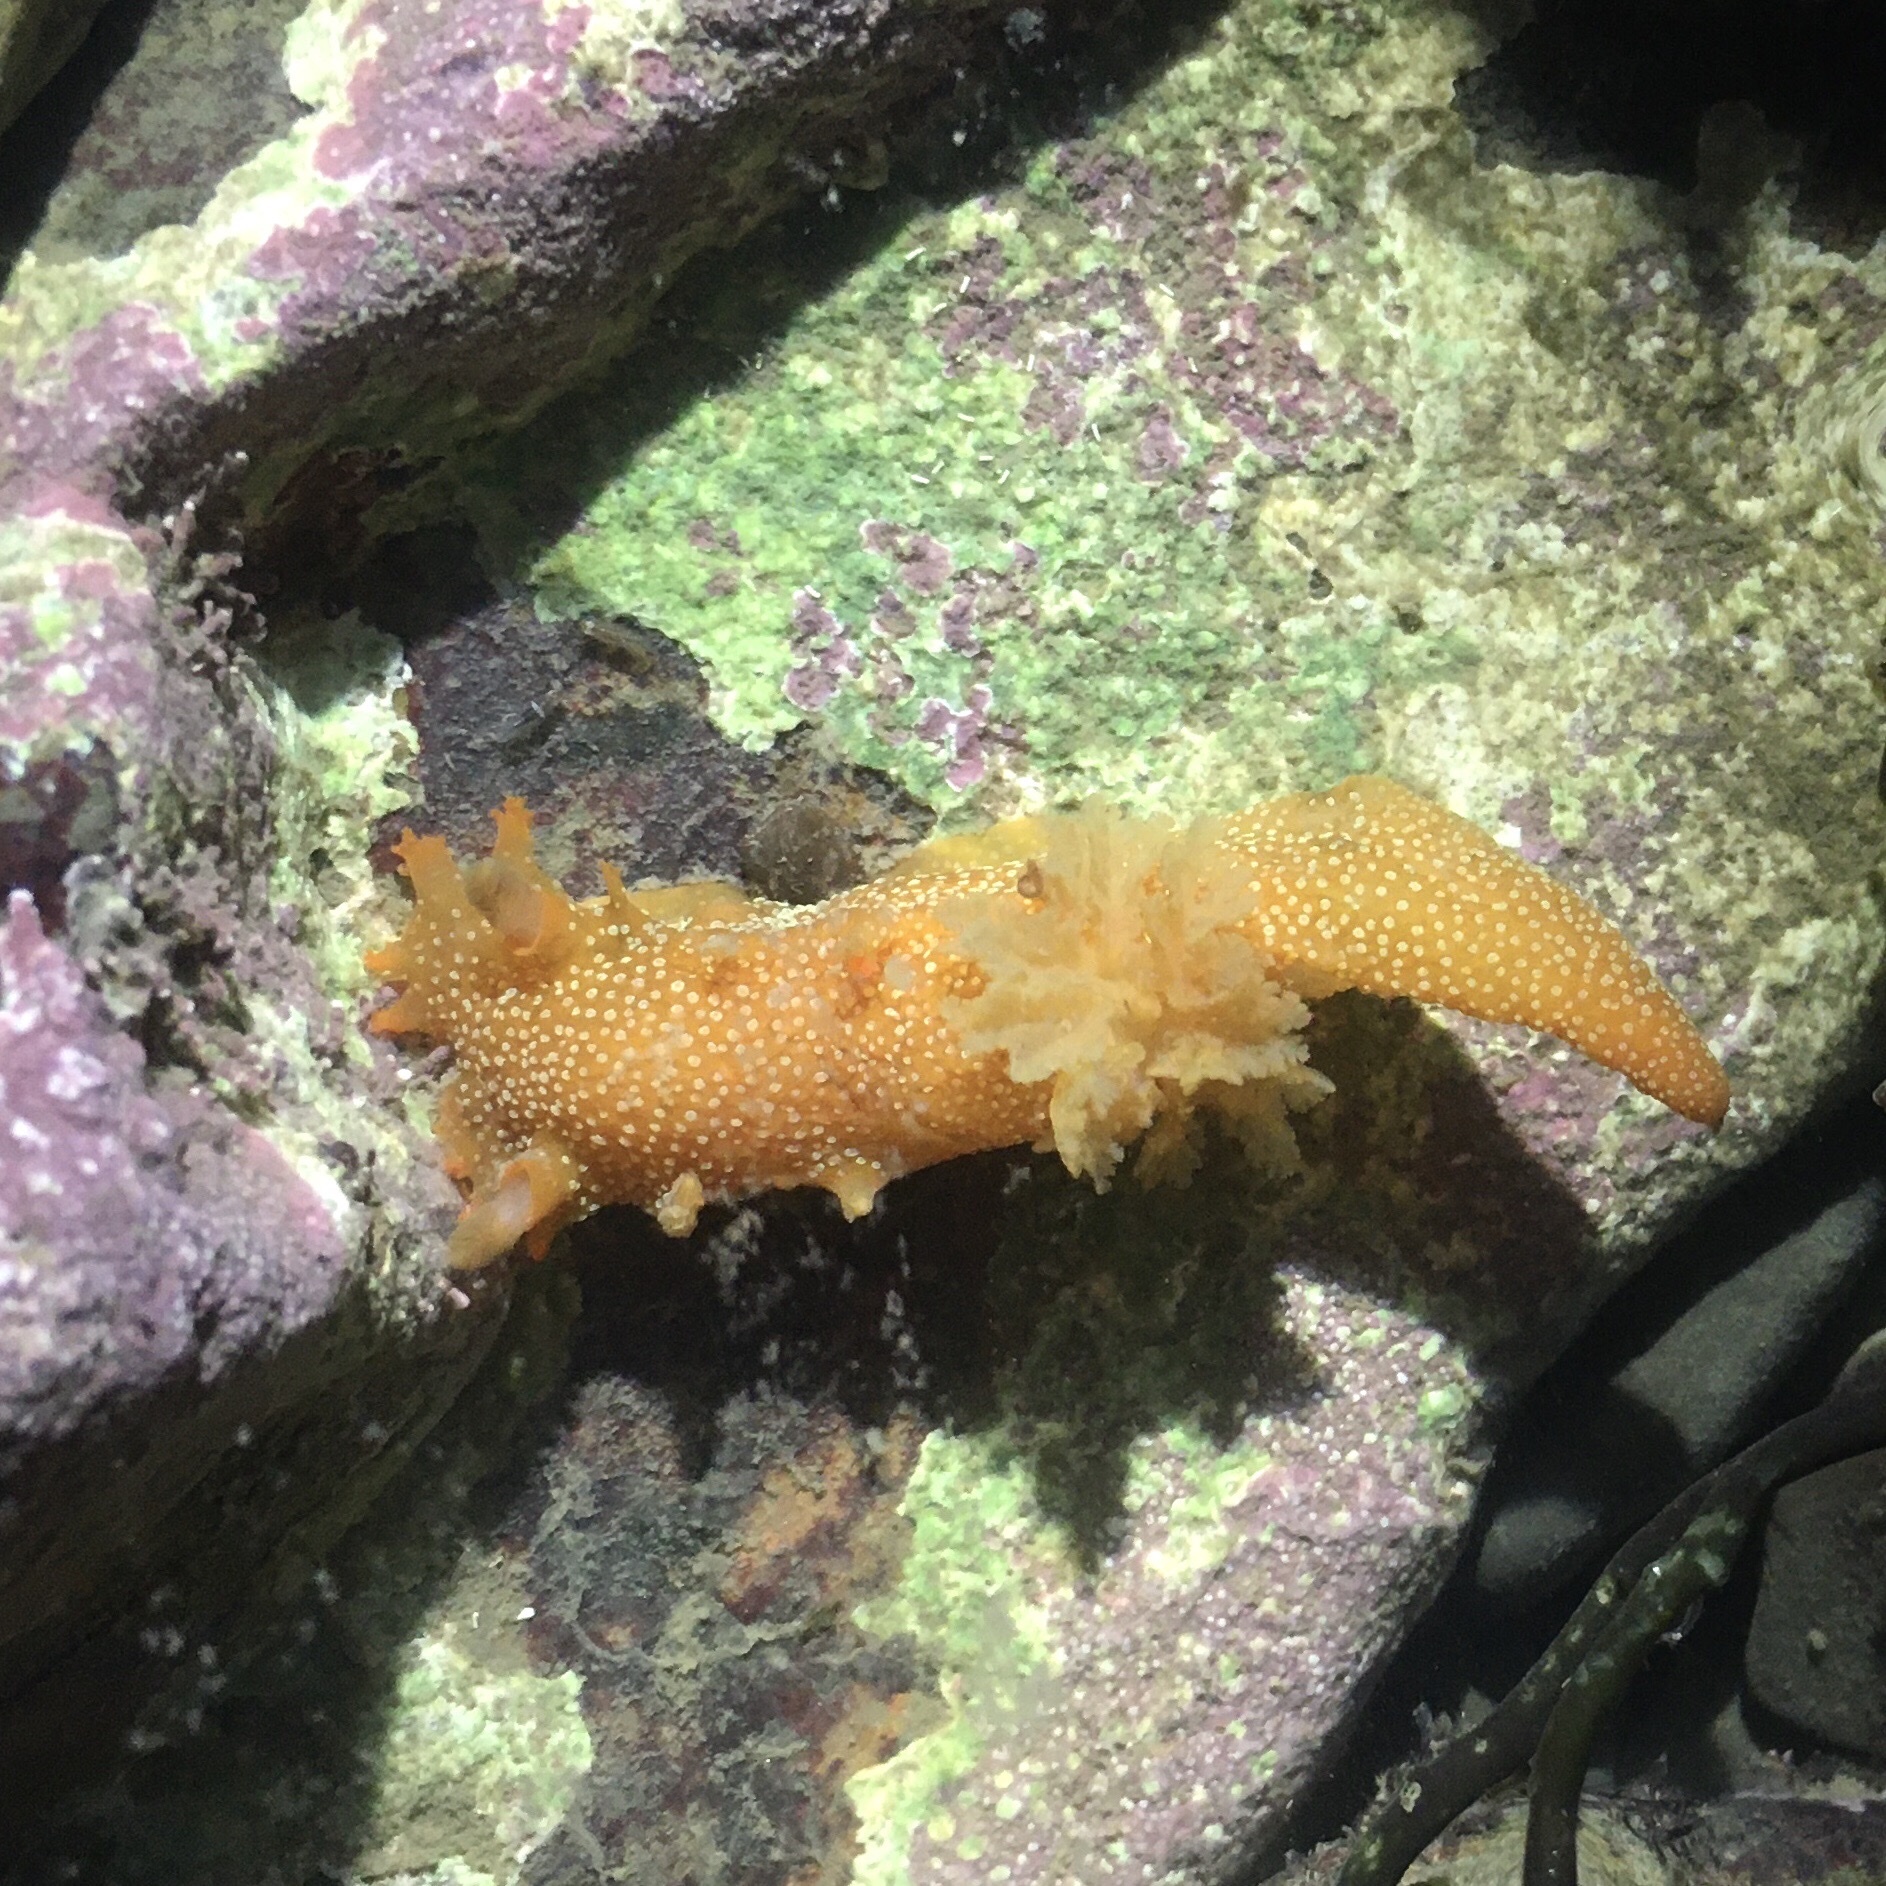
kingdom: Animalia
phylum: Mollusca
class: Gastropoda
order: Nudibranchia
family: Polyceridae
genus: Triopha
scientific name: Triopha maculata
